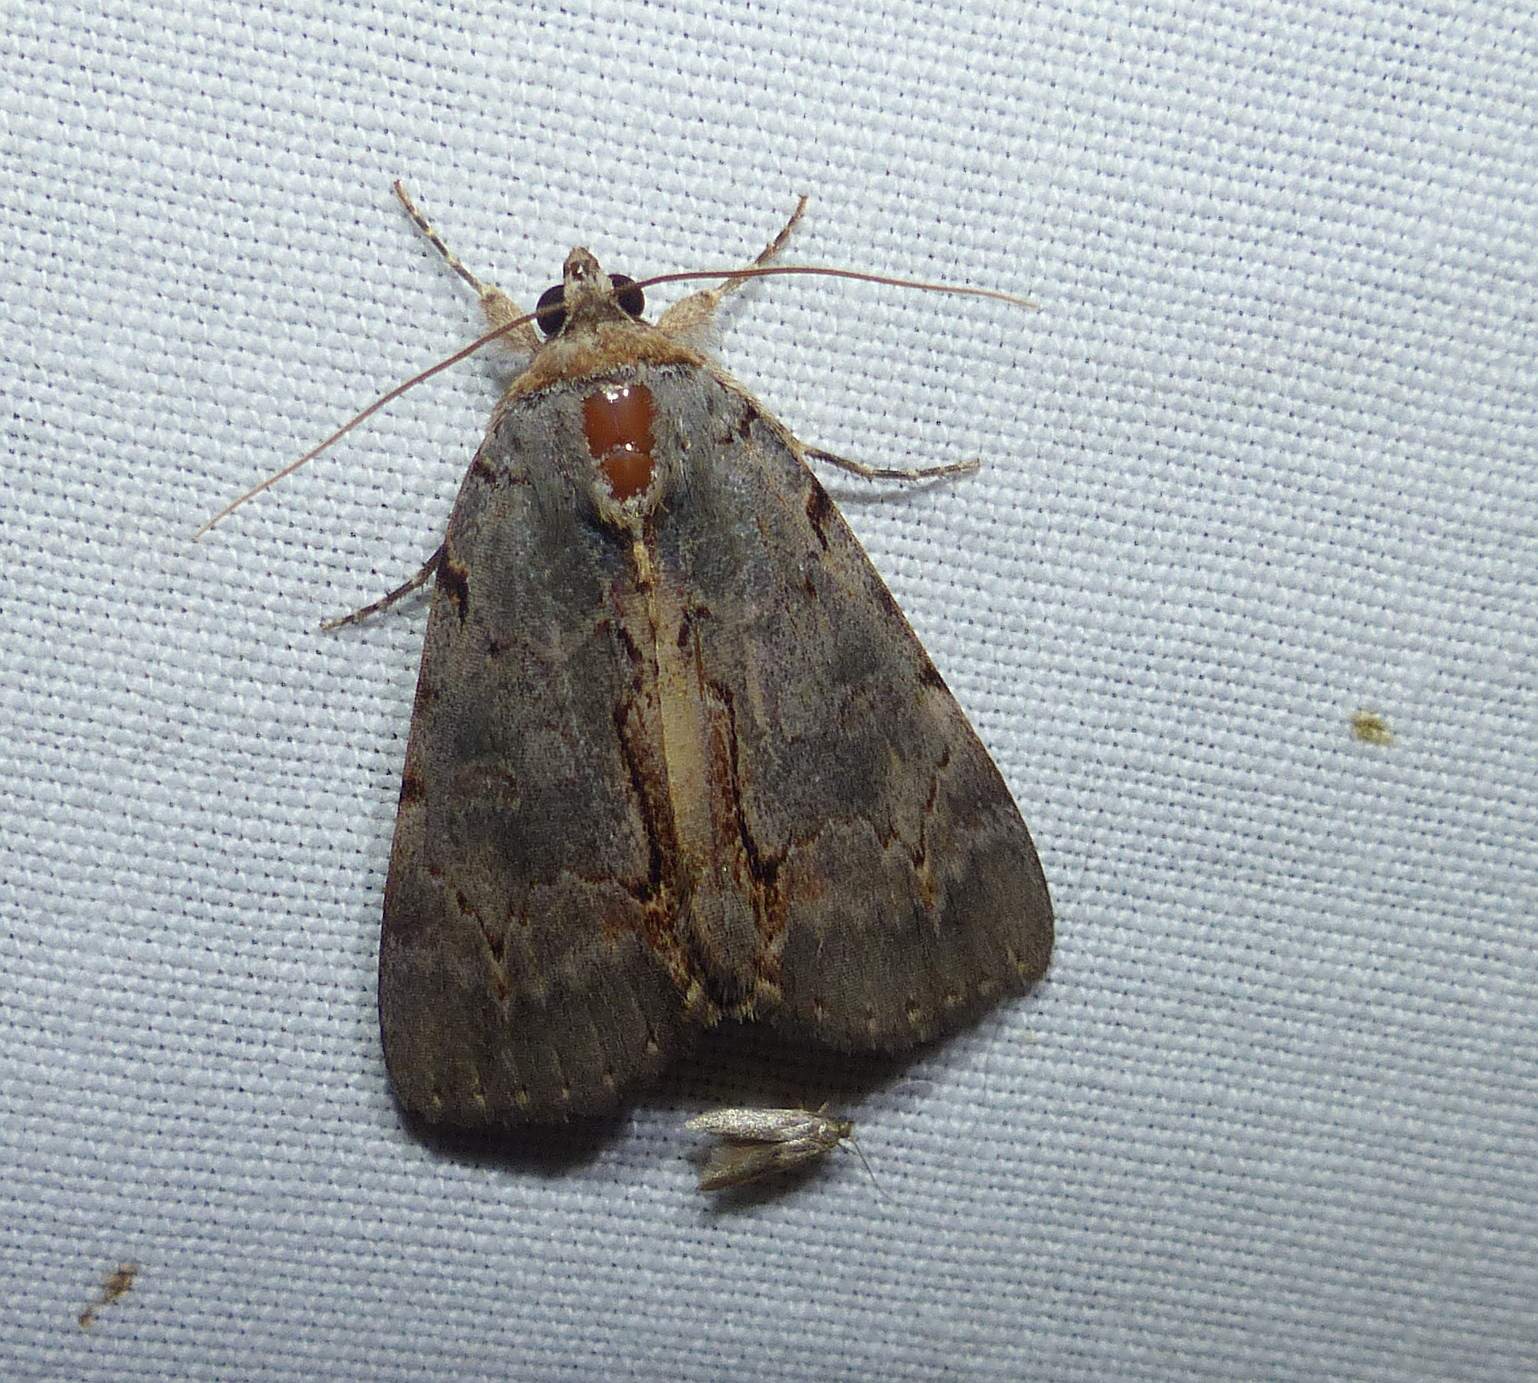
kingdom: Animalia
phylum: Arthropoda
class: Insecta
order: Lepidoptera
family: Erebidae
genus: Catocala
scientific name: Catocala grynea
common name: Woody underwing
